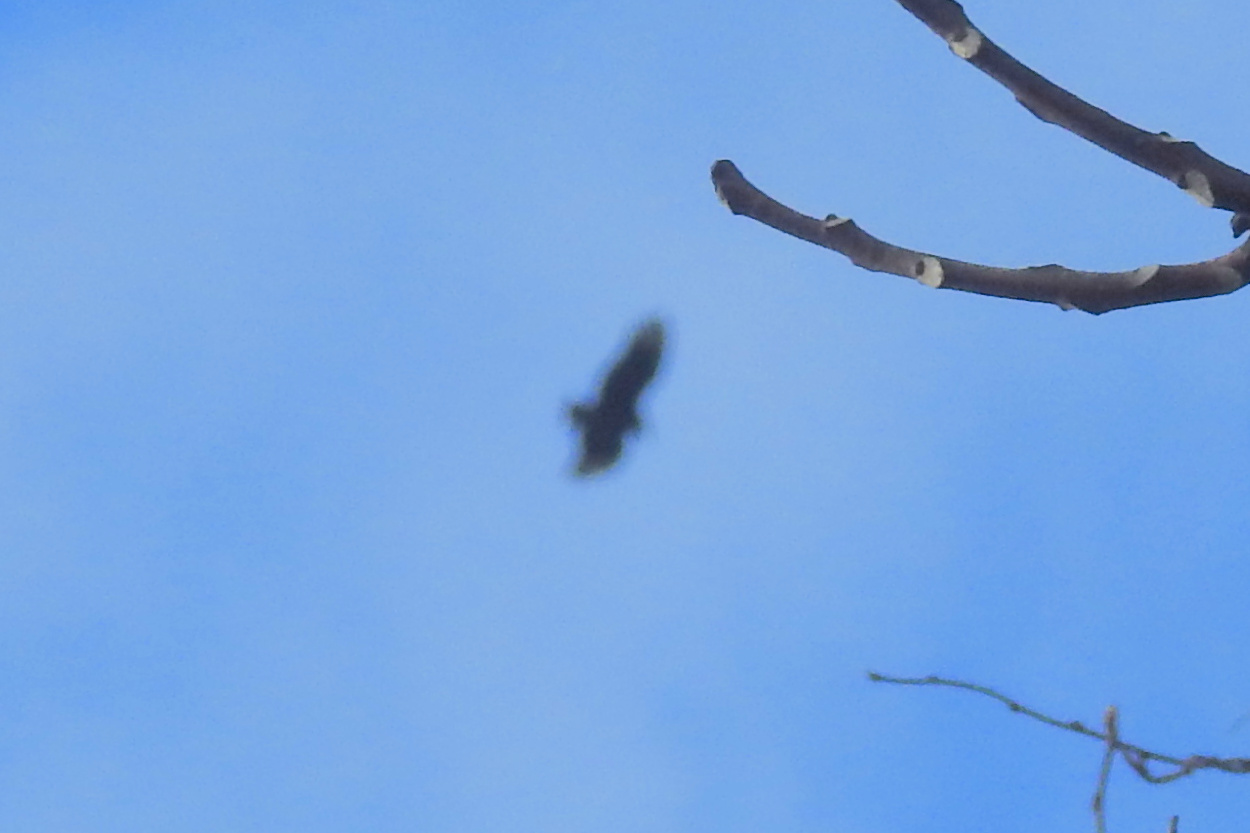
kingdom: Animalia
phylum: Chordata
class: Aves
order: Accipitriformes
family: Cathartidae
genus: Coragyps
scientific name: Coragyps atratus
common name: Black vulture
